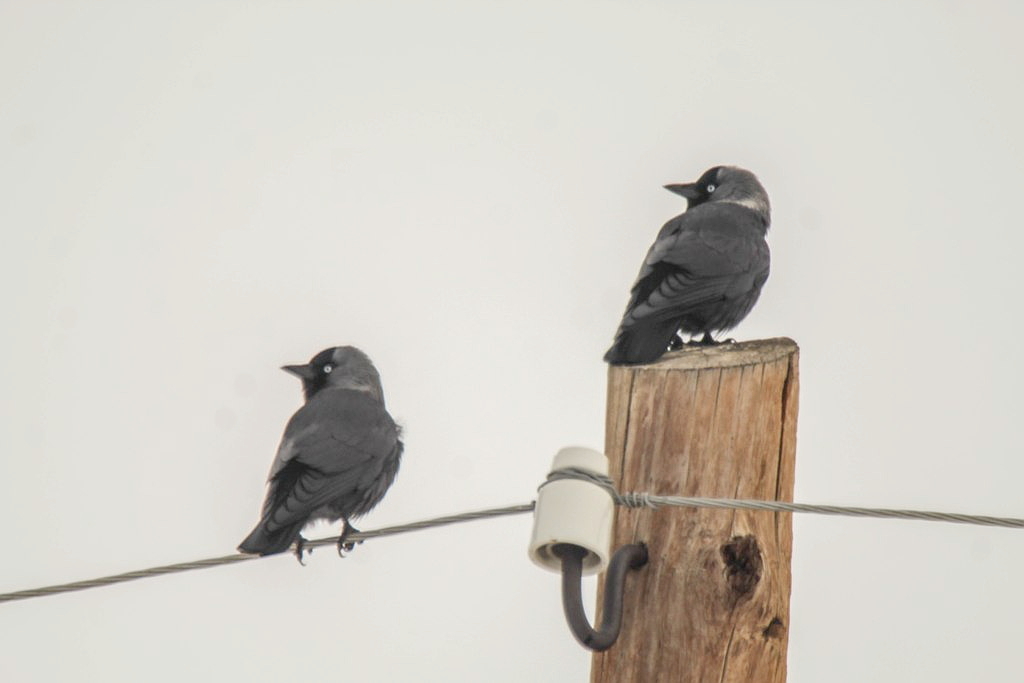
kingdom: Animalia
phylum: Chordata
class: Aves
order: Passeriformes
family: Corvidae
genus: Coloeus
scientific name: Coloeus monedula
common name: Western jackdaw
